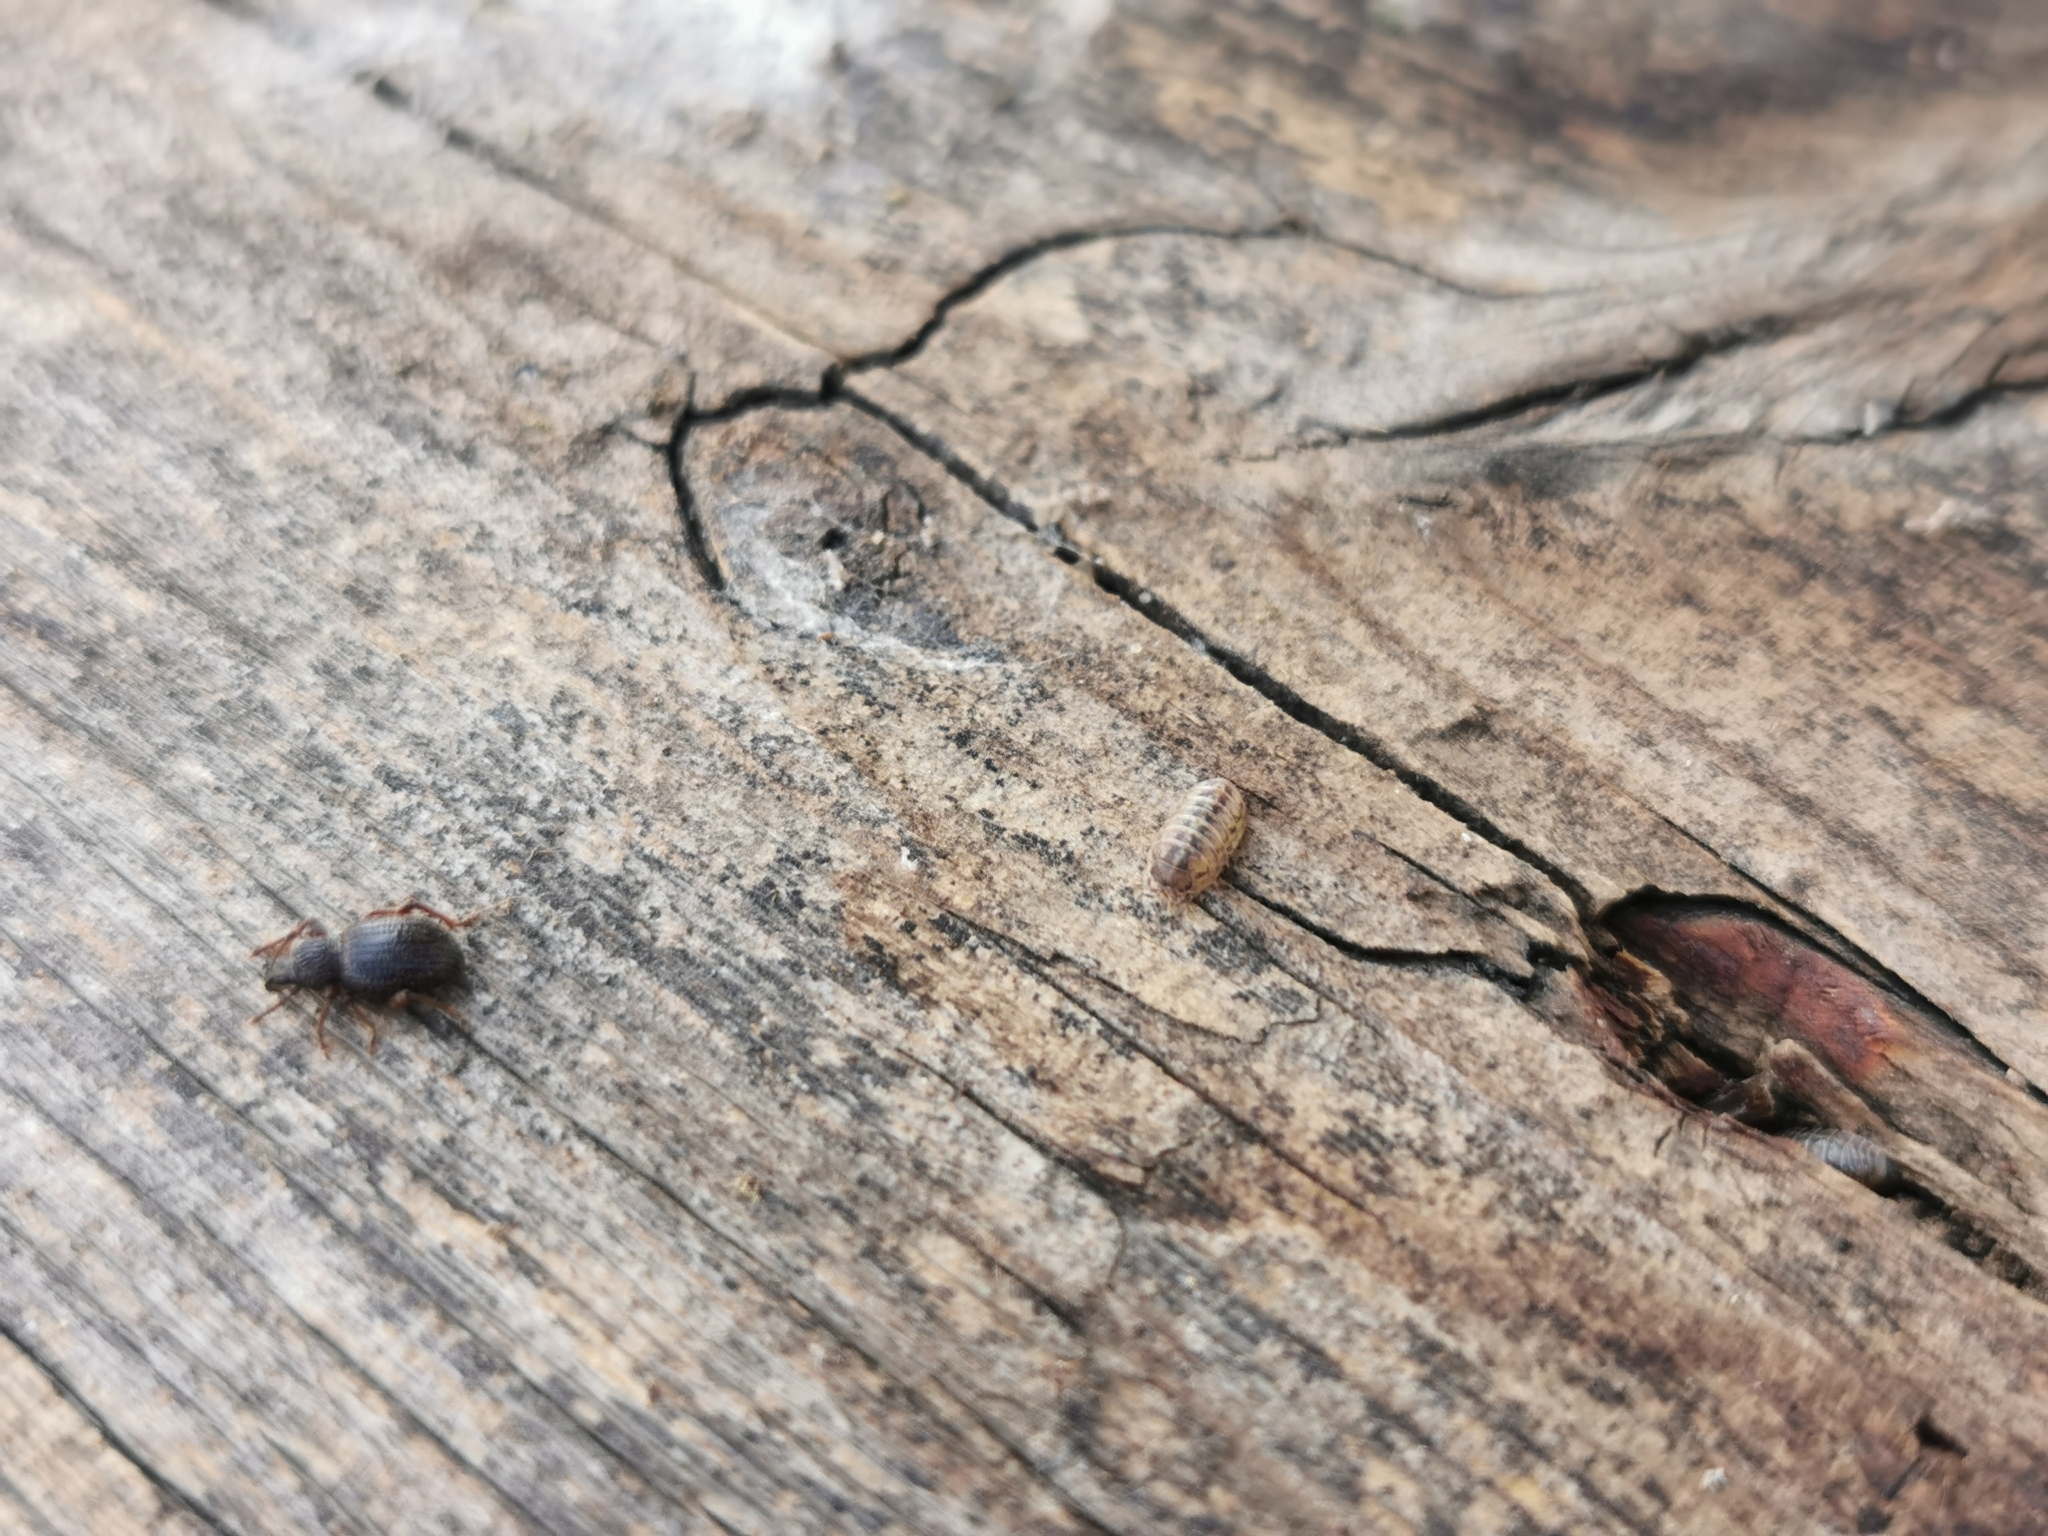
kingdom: Animalia
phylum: Arthropoda
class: Malacostraca
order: Isopoda
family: Armadillidiidae
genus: Armadillidium
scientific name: Armadillidium vulgare
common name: Common pill woodlouse
